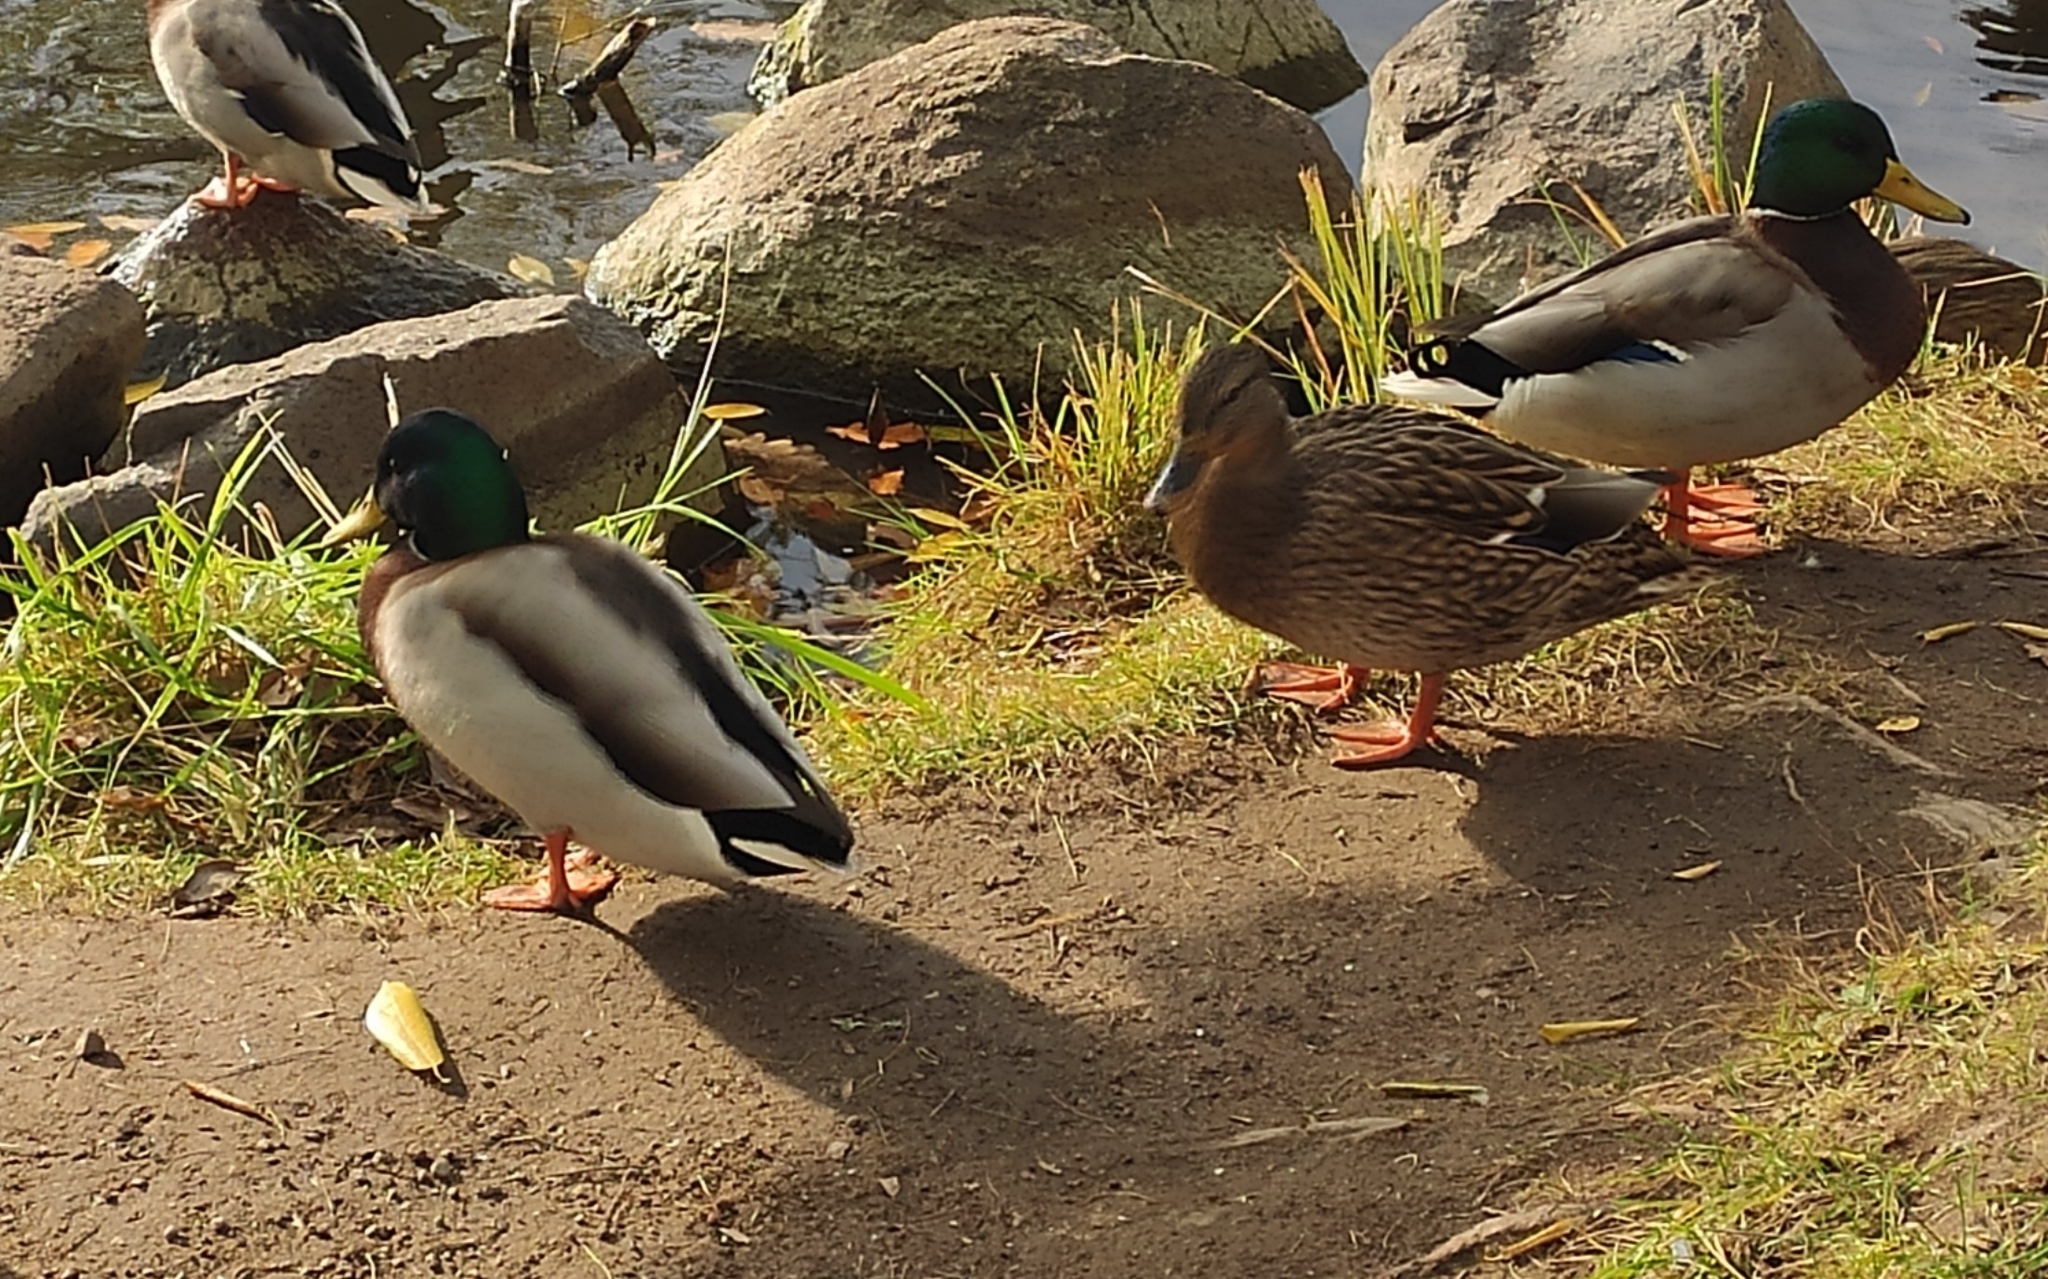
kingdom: Animalia
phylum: Chordata
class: Aves
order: Anseriformes
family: Anatidae
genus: Anas
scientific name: Anas platyrhynchos
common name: Mallard
